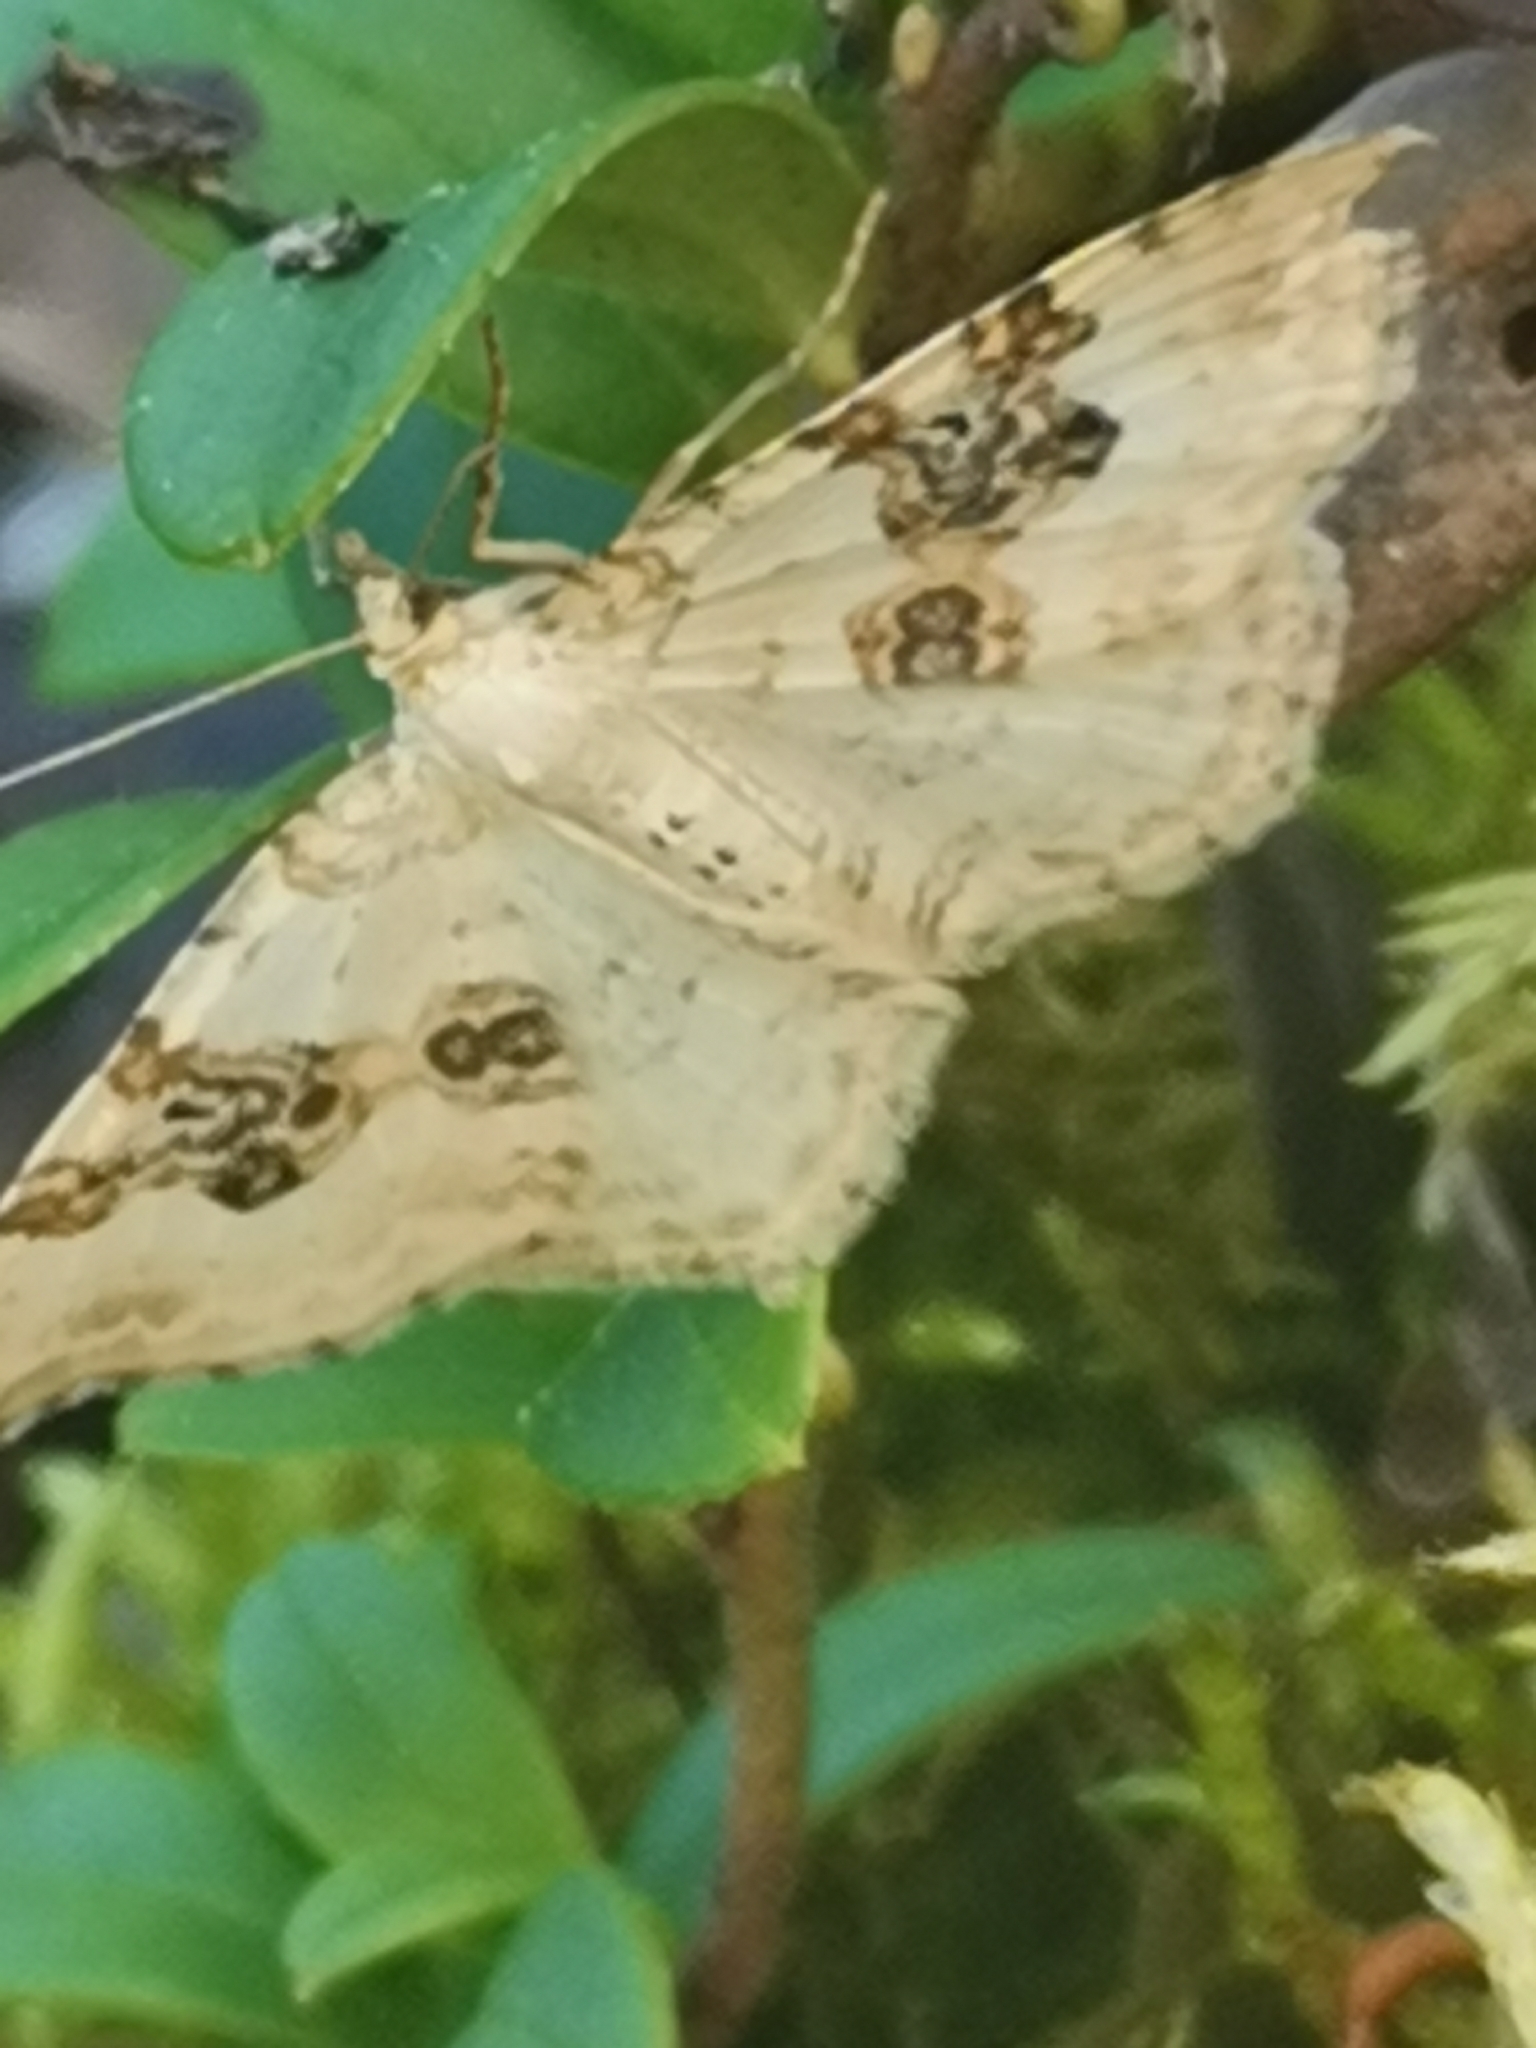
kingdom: Animalia
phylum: Arthropoda
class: Insecta
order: Lepidoptera
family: Geometridae
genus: Xanthorhoe
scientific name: Xanthorhoe montanata
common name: Silver-ground carpet
